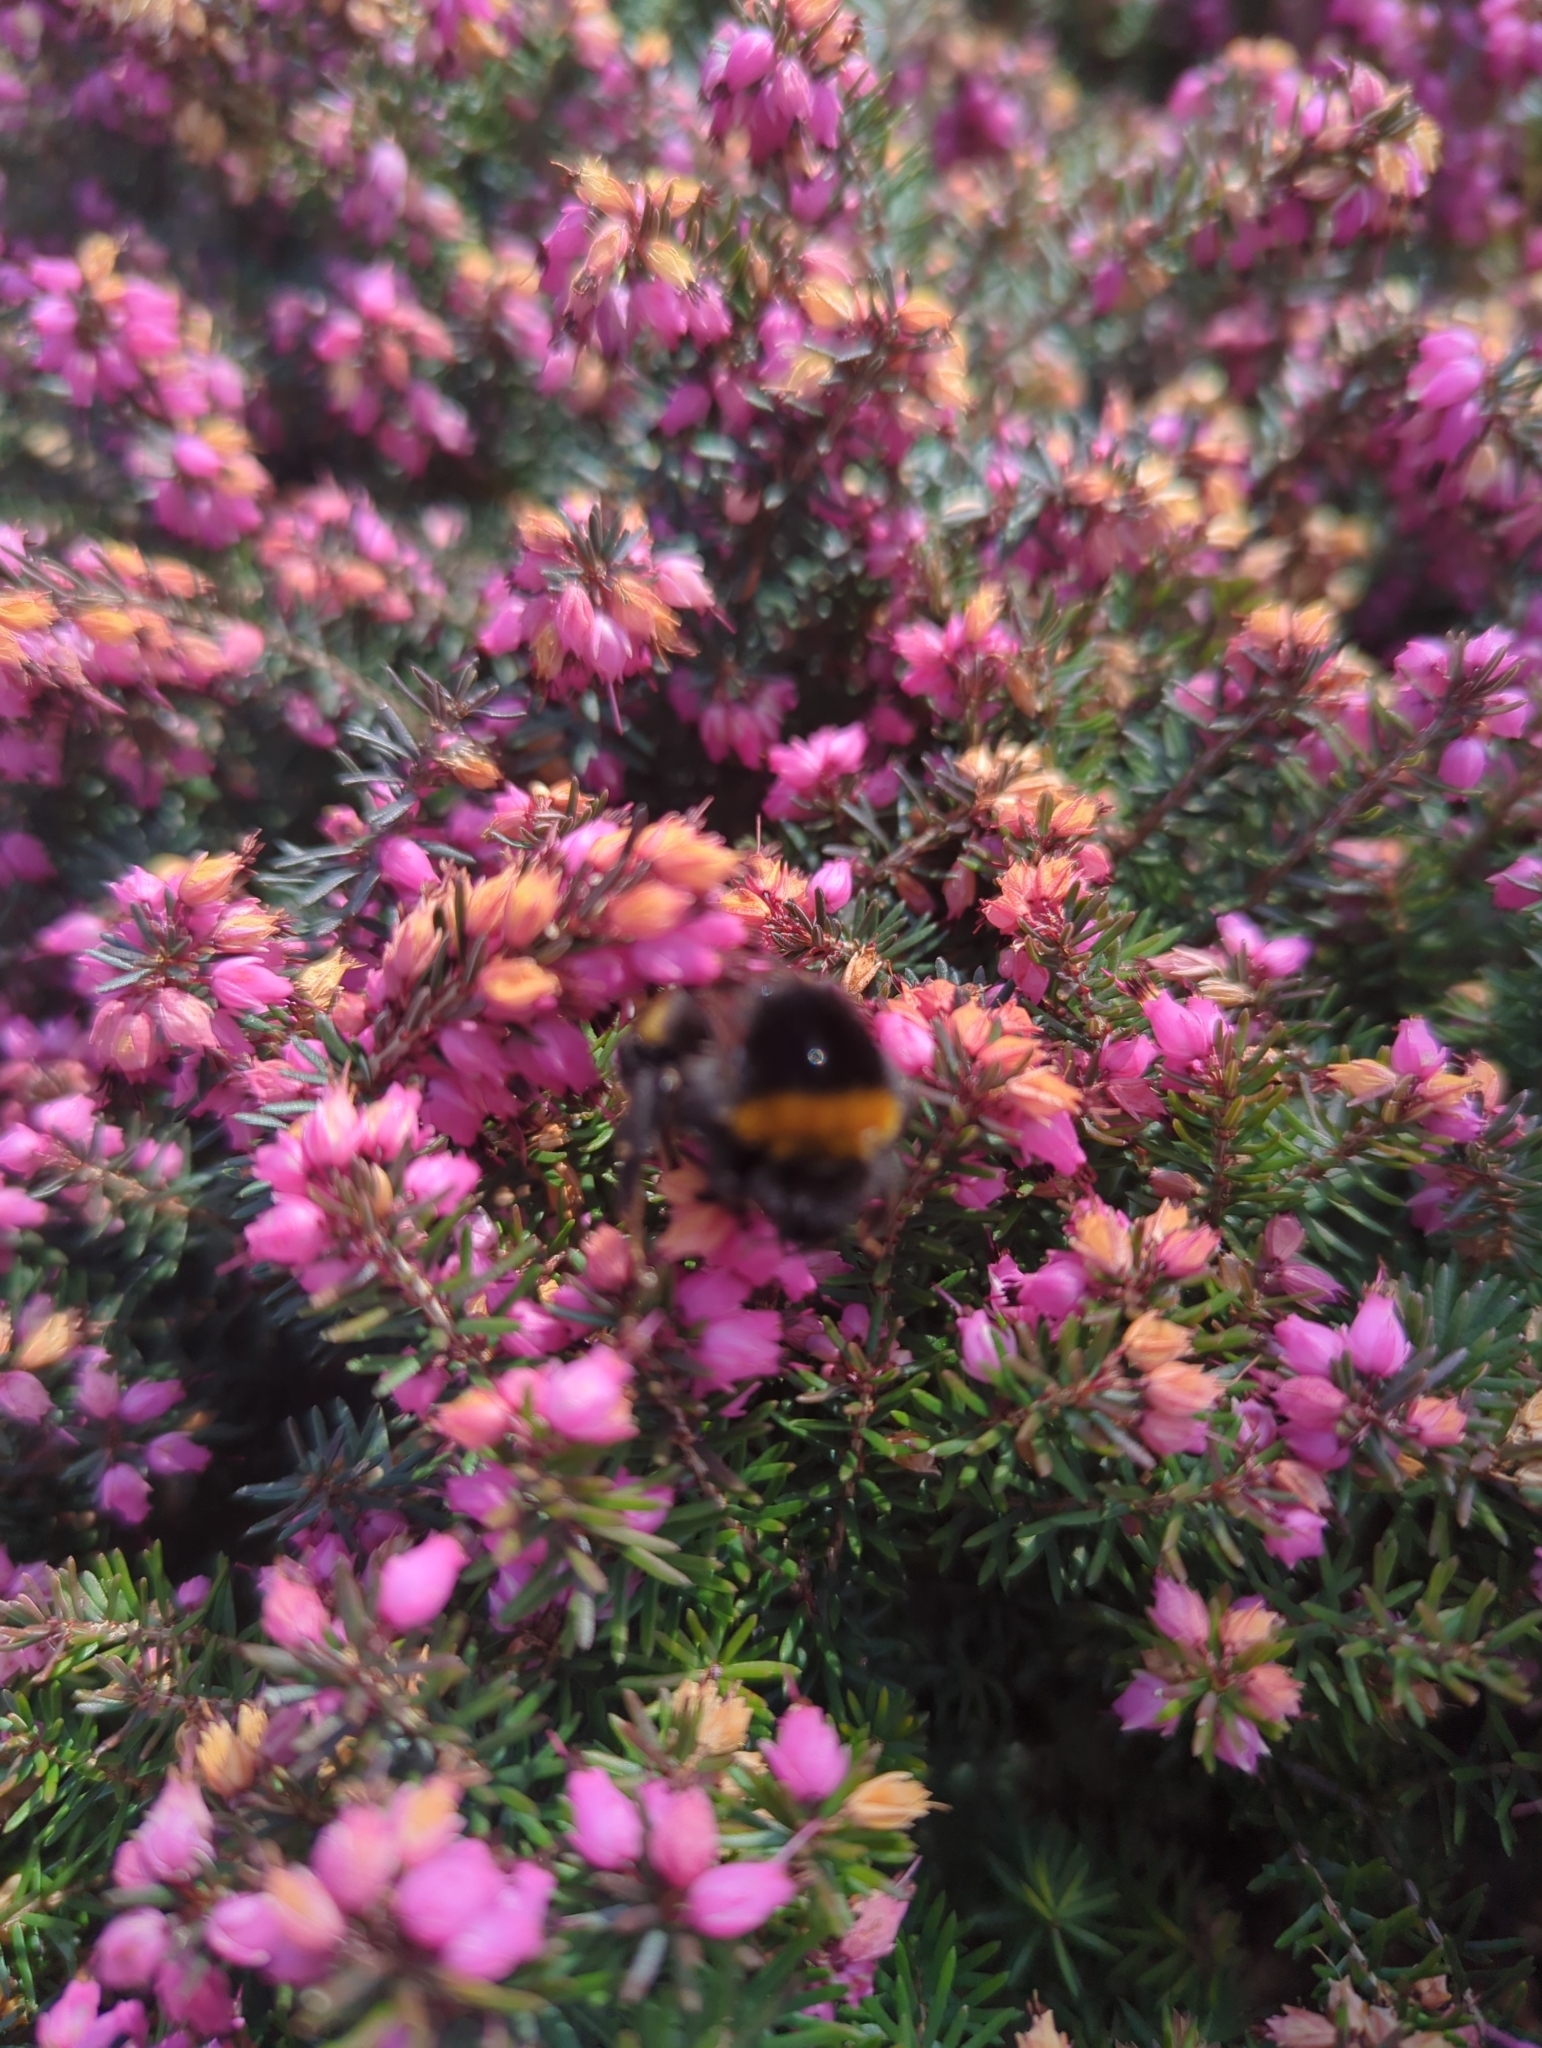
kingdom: Animalia
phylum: Arthropoda
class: Insecta
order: Hymenoptera
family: Apidae
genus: Bombus
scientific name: Bombus terrestris
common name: Buff-tailed bumblebee
